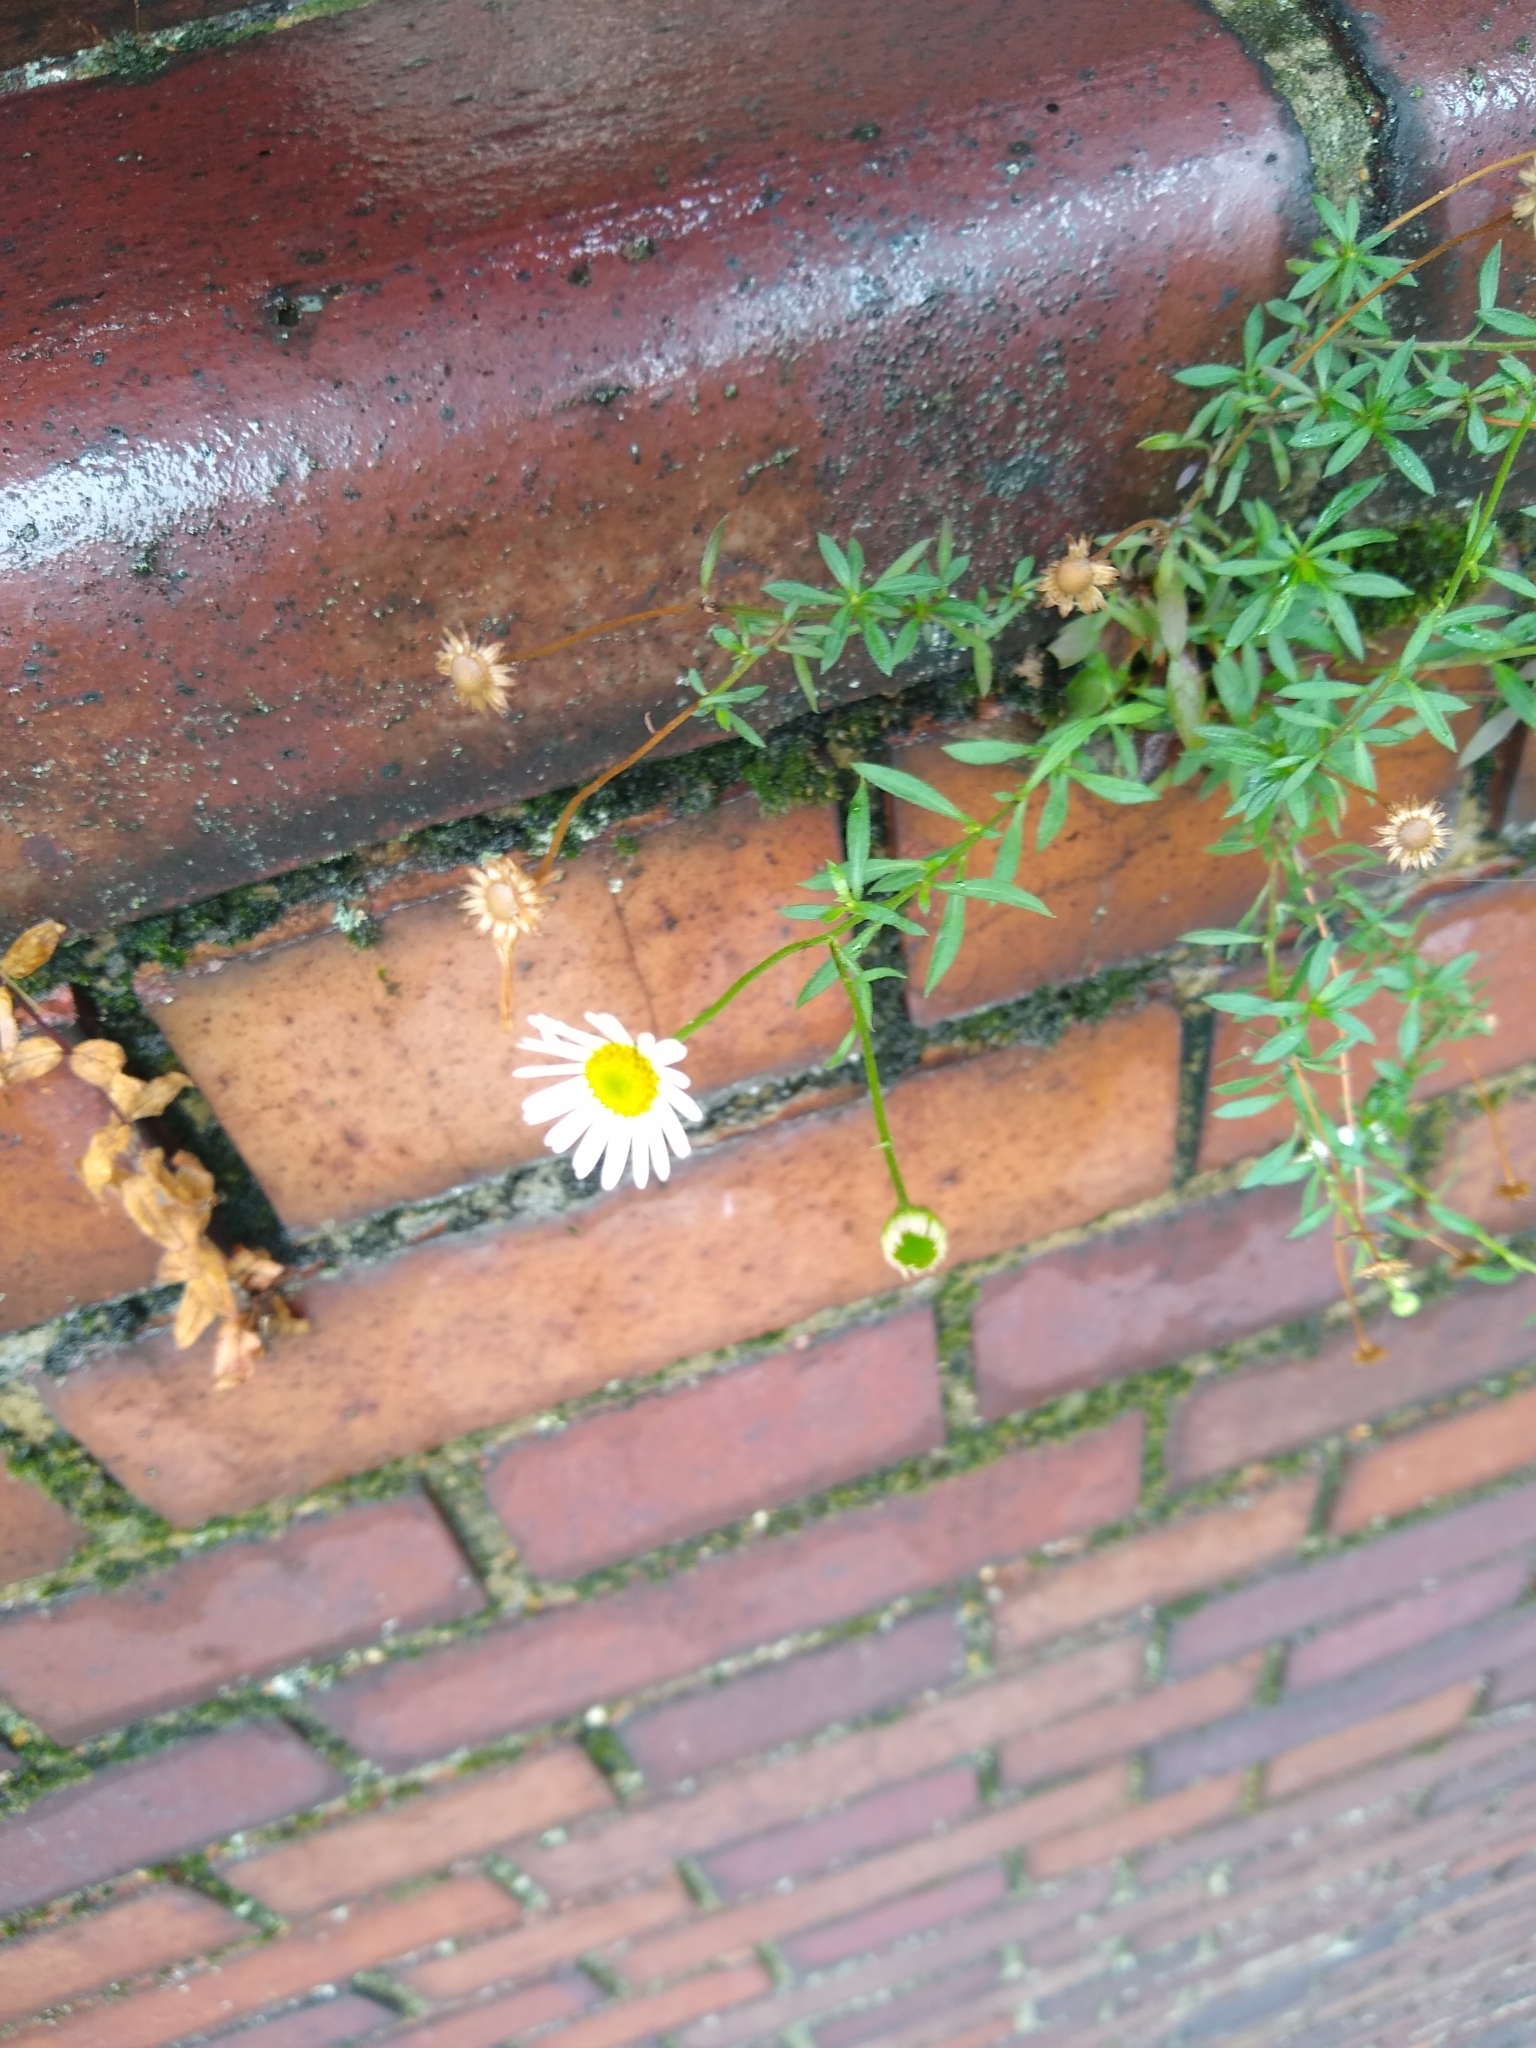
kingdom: Plantae
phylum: Tracheophyta
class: Magnoliopsida
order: Asterales
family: Asteraceae
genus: Erigeron
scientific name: Erigeron karvinskianus
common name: Mexican fleabane
